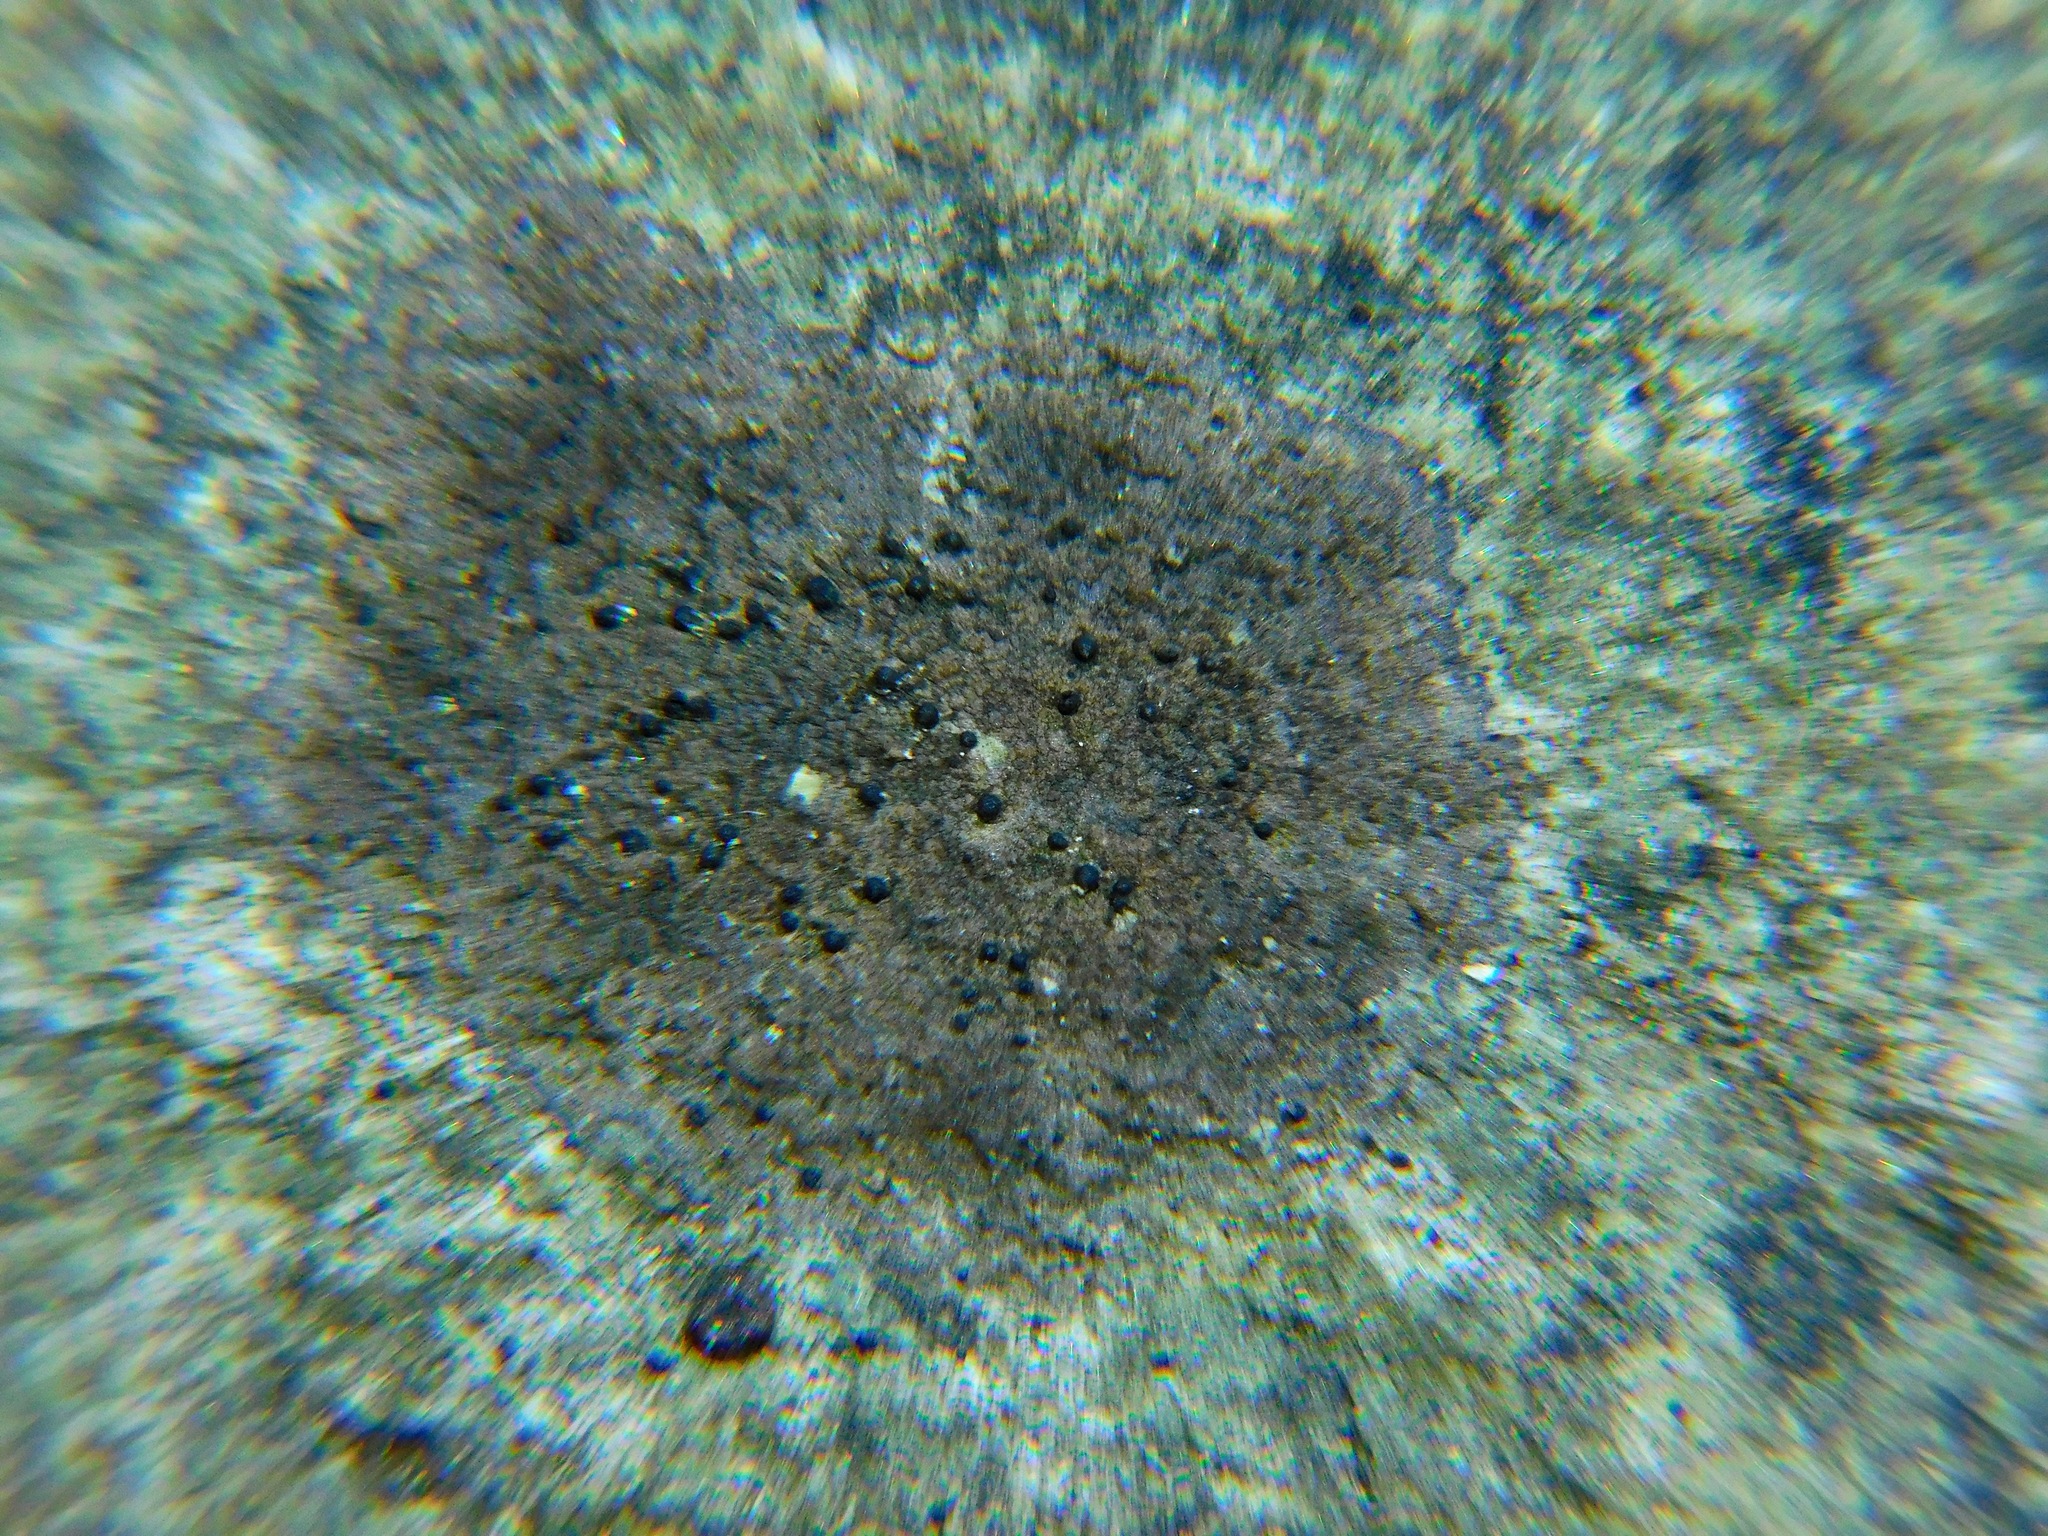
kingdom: Fungi
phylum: Ascomycota
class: Lecanoromycetes
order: Ostropales
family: Porinaceae
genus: Pseudosagedia
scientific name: Pseudosagedia guentheri
